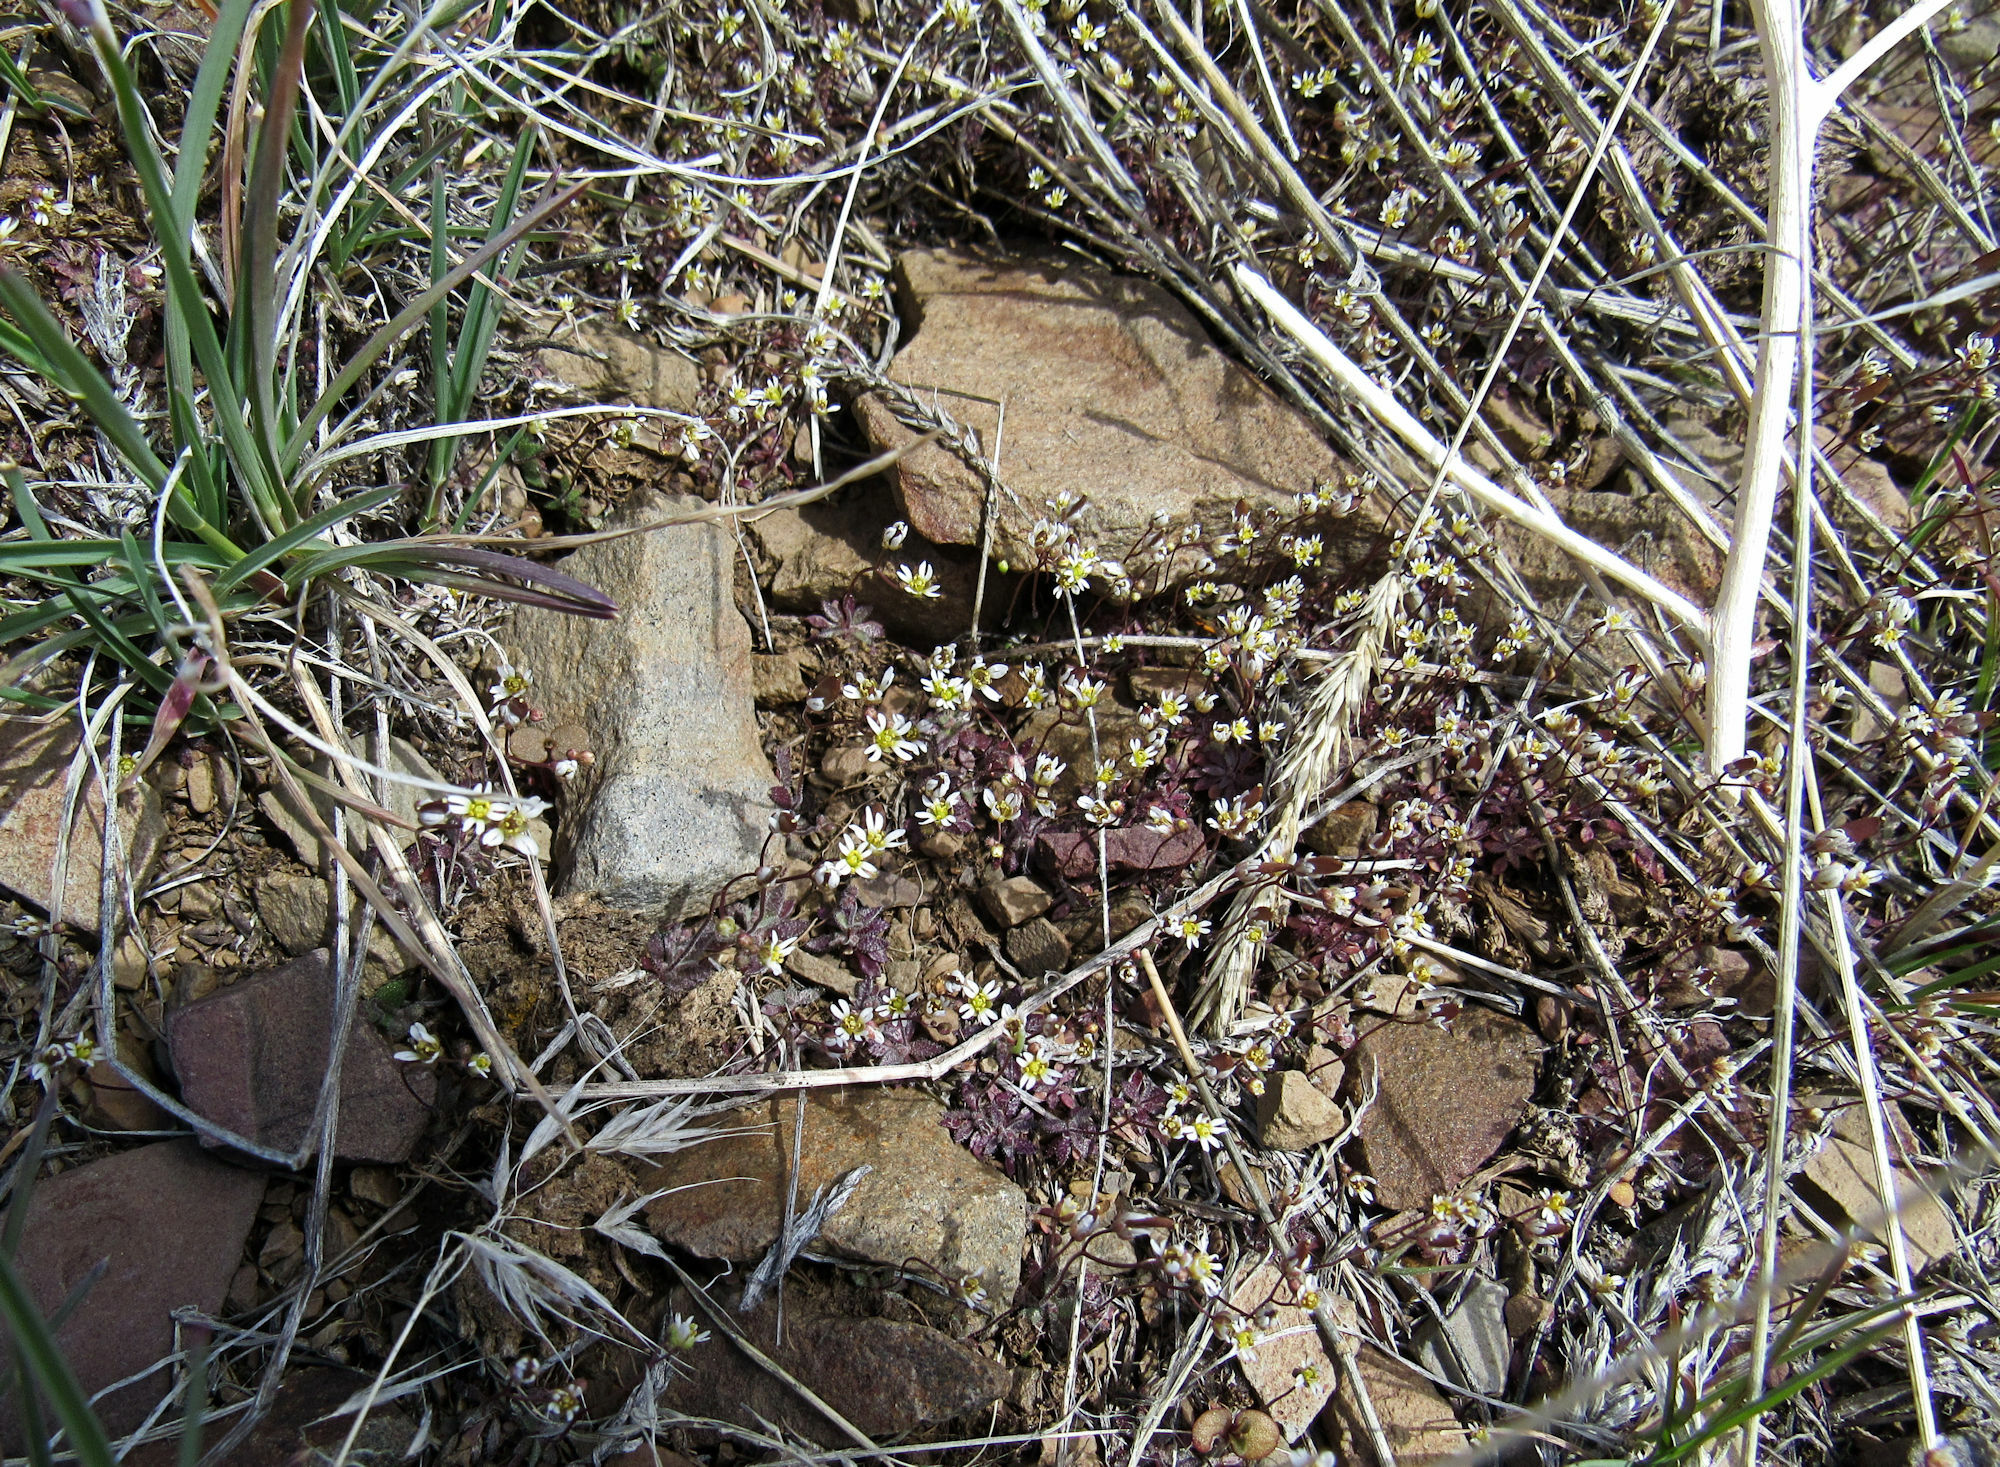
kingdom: Plantae
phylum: Tracheophyta
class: Magnoliopsida
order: Brassicales
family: Brassicaceae
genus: Draba
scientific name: Draba verna
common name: Spring draba
